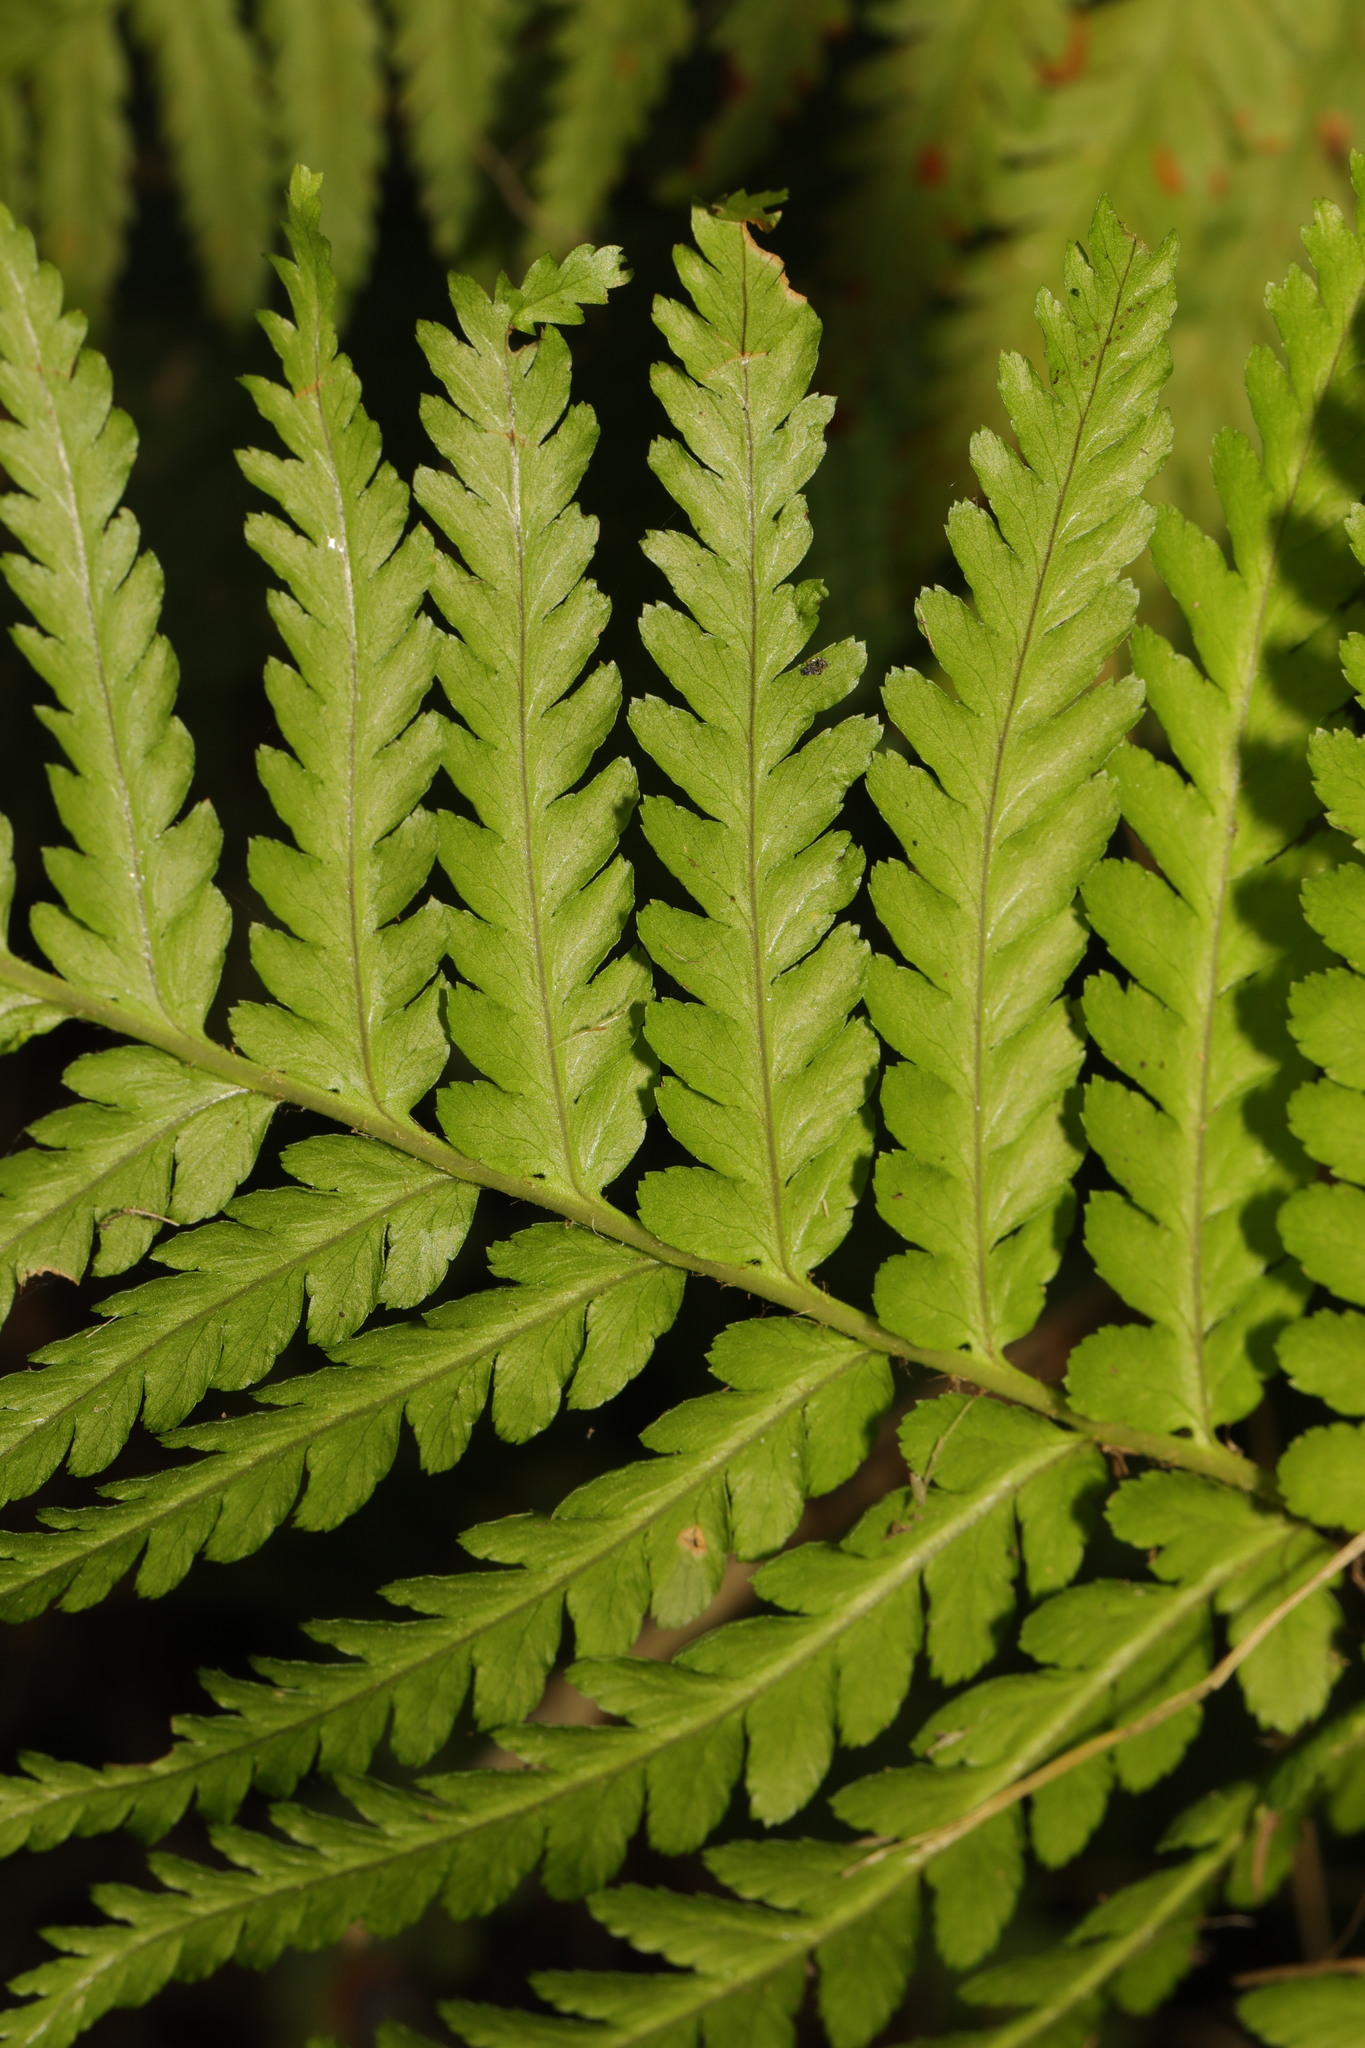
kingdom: Plantae
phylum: Tracheophyta
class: Polypodiopsida
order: Polypodiales
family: Dryopteridaceae
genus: Dryopteris
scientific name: Dryopteris filix-mas
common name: Male fern
